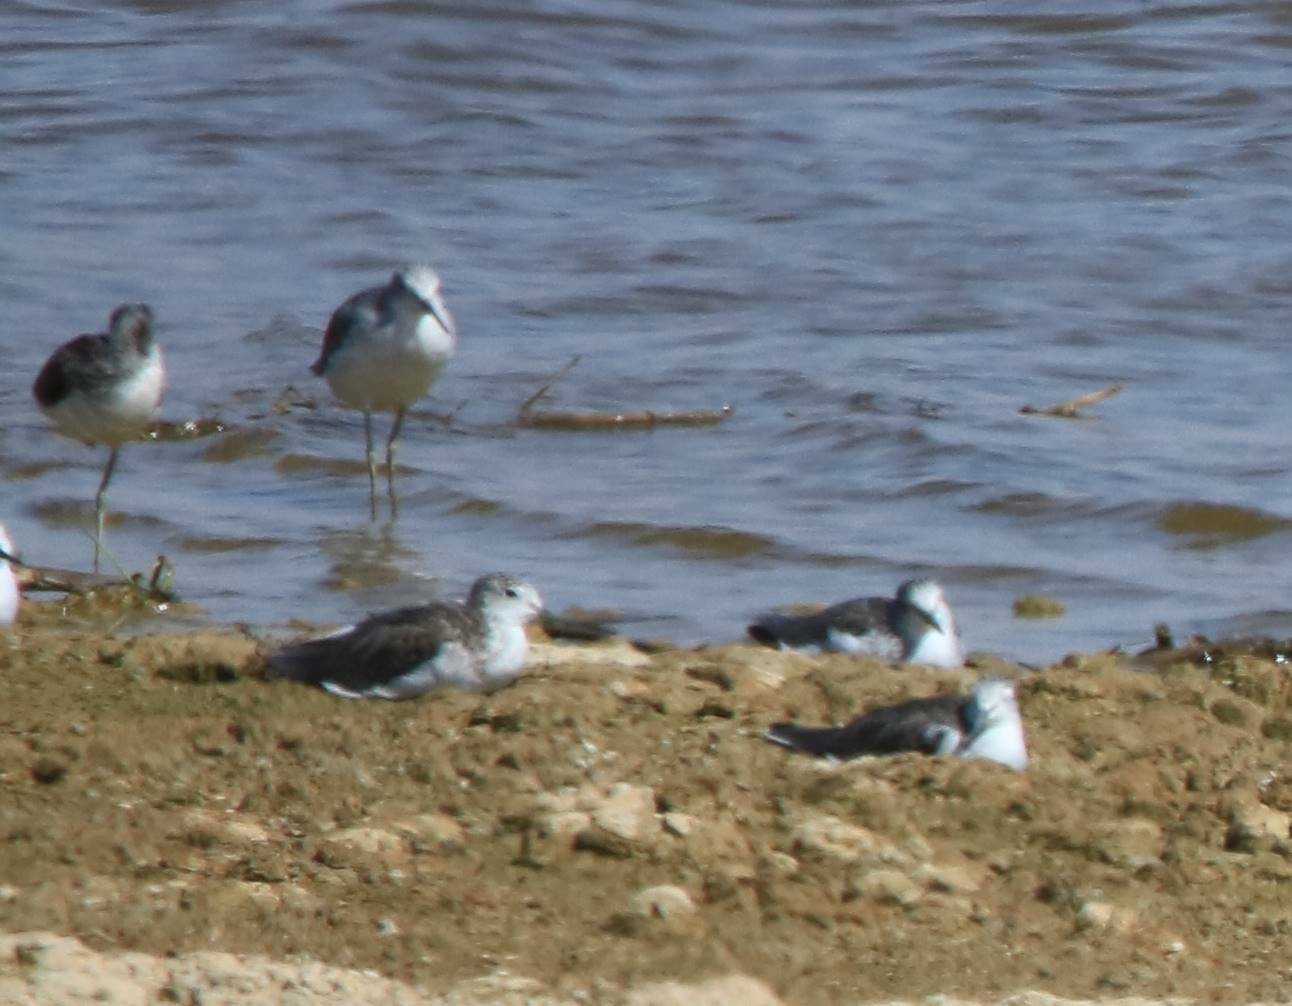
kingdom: Animalia
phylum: Chordata
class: Aves
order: Charadriiformes
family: Scolopacidae
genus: Tringa
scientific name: Tringa nebularia
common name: Common greenshank
